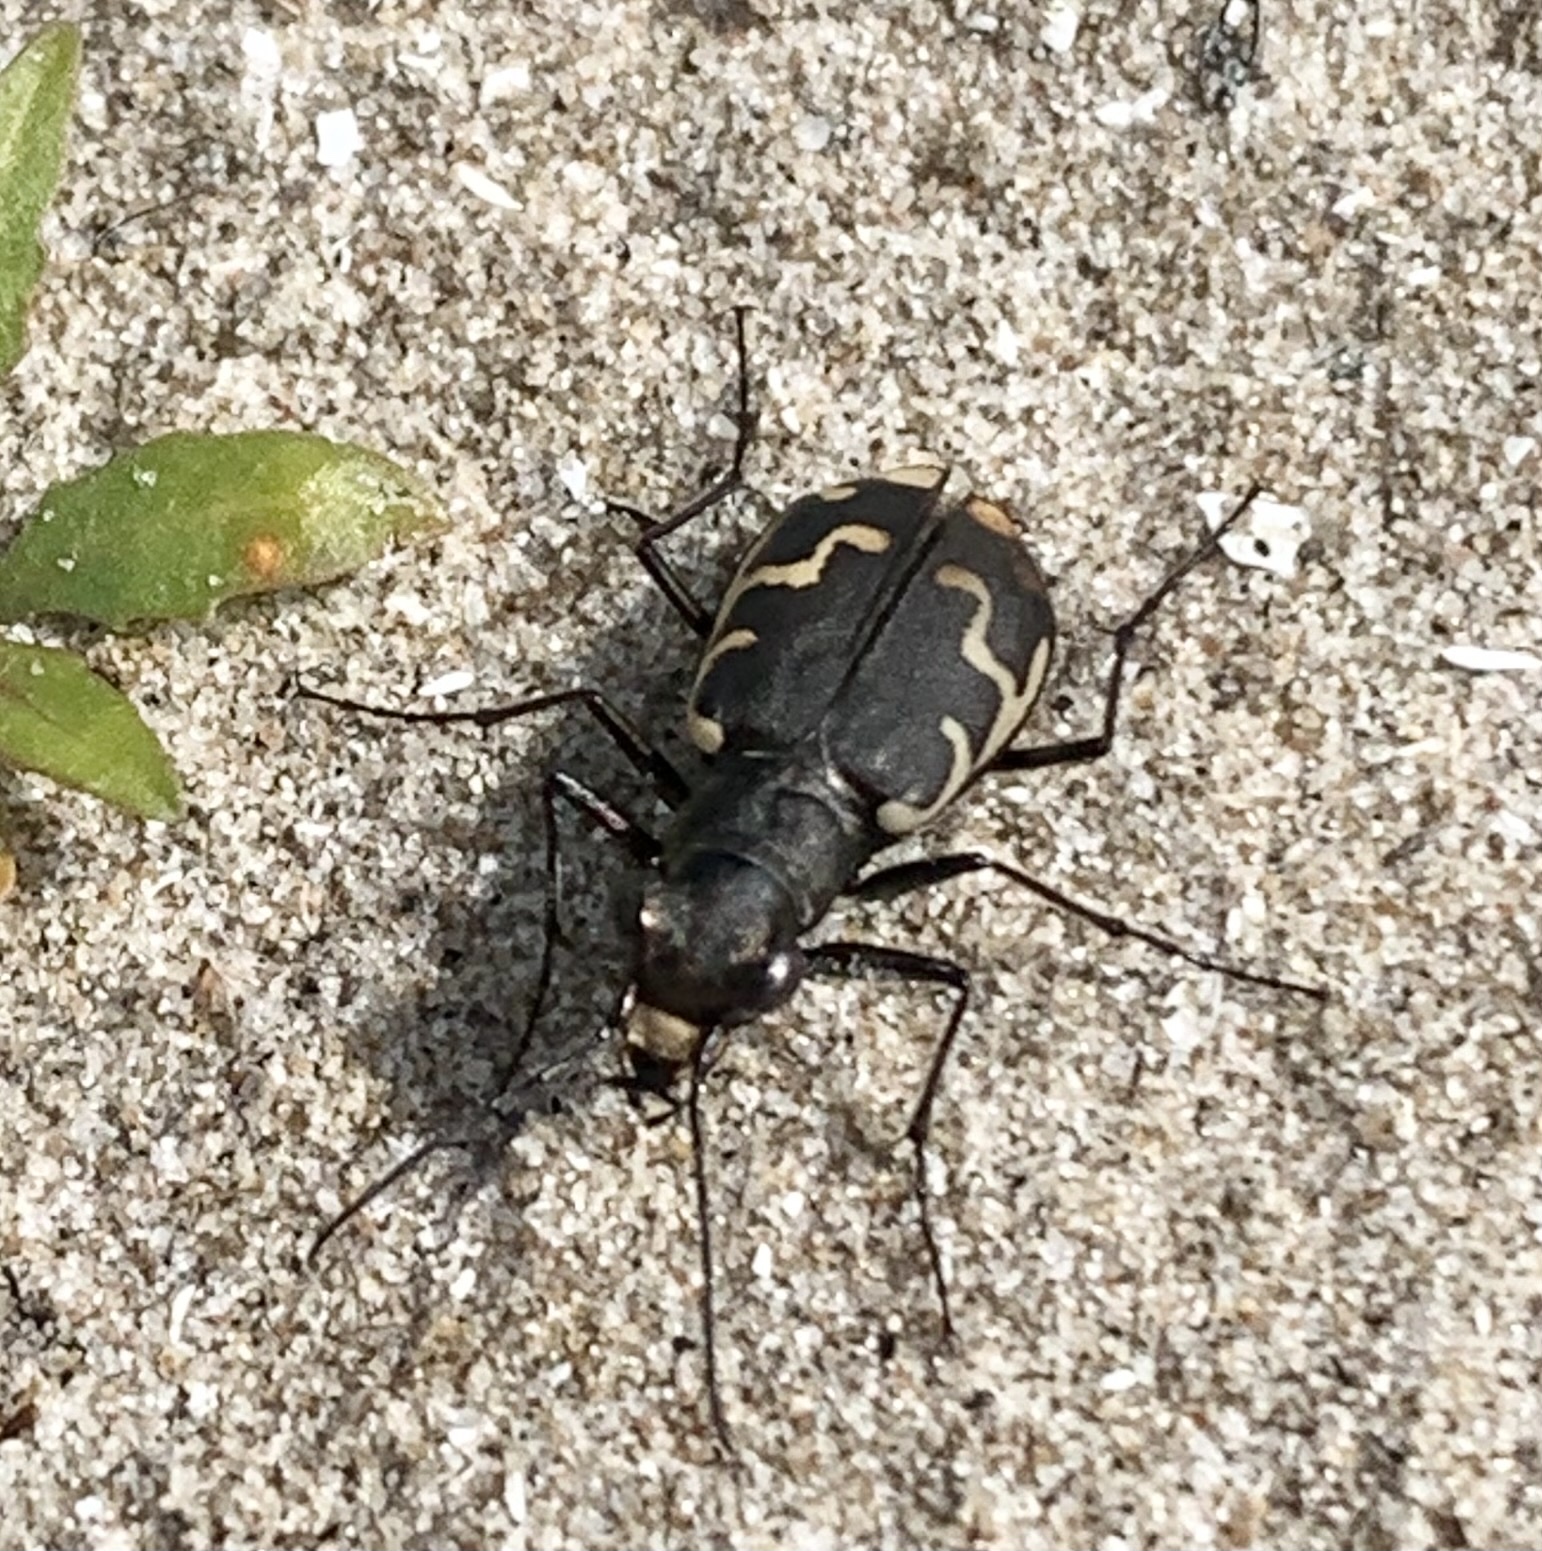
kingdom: Animalia
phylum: Arthropoda
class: Insecta
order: Coleoptera
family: Carabidae
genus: Cicindela
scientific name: Cicindela repanda
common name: Bronzed tiger beetle
